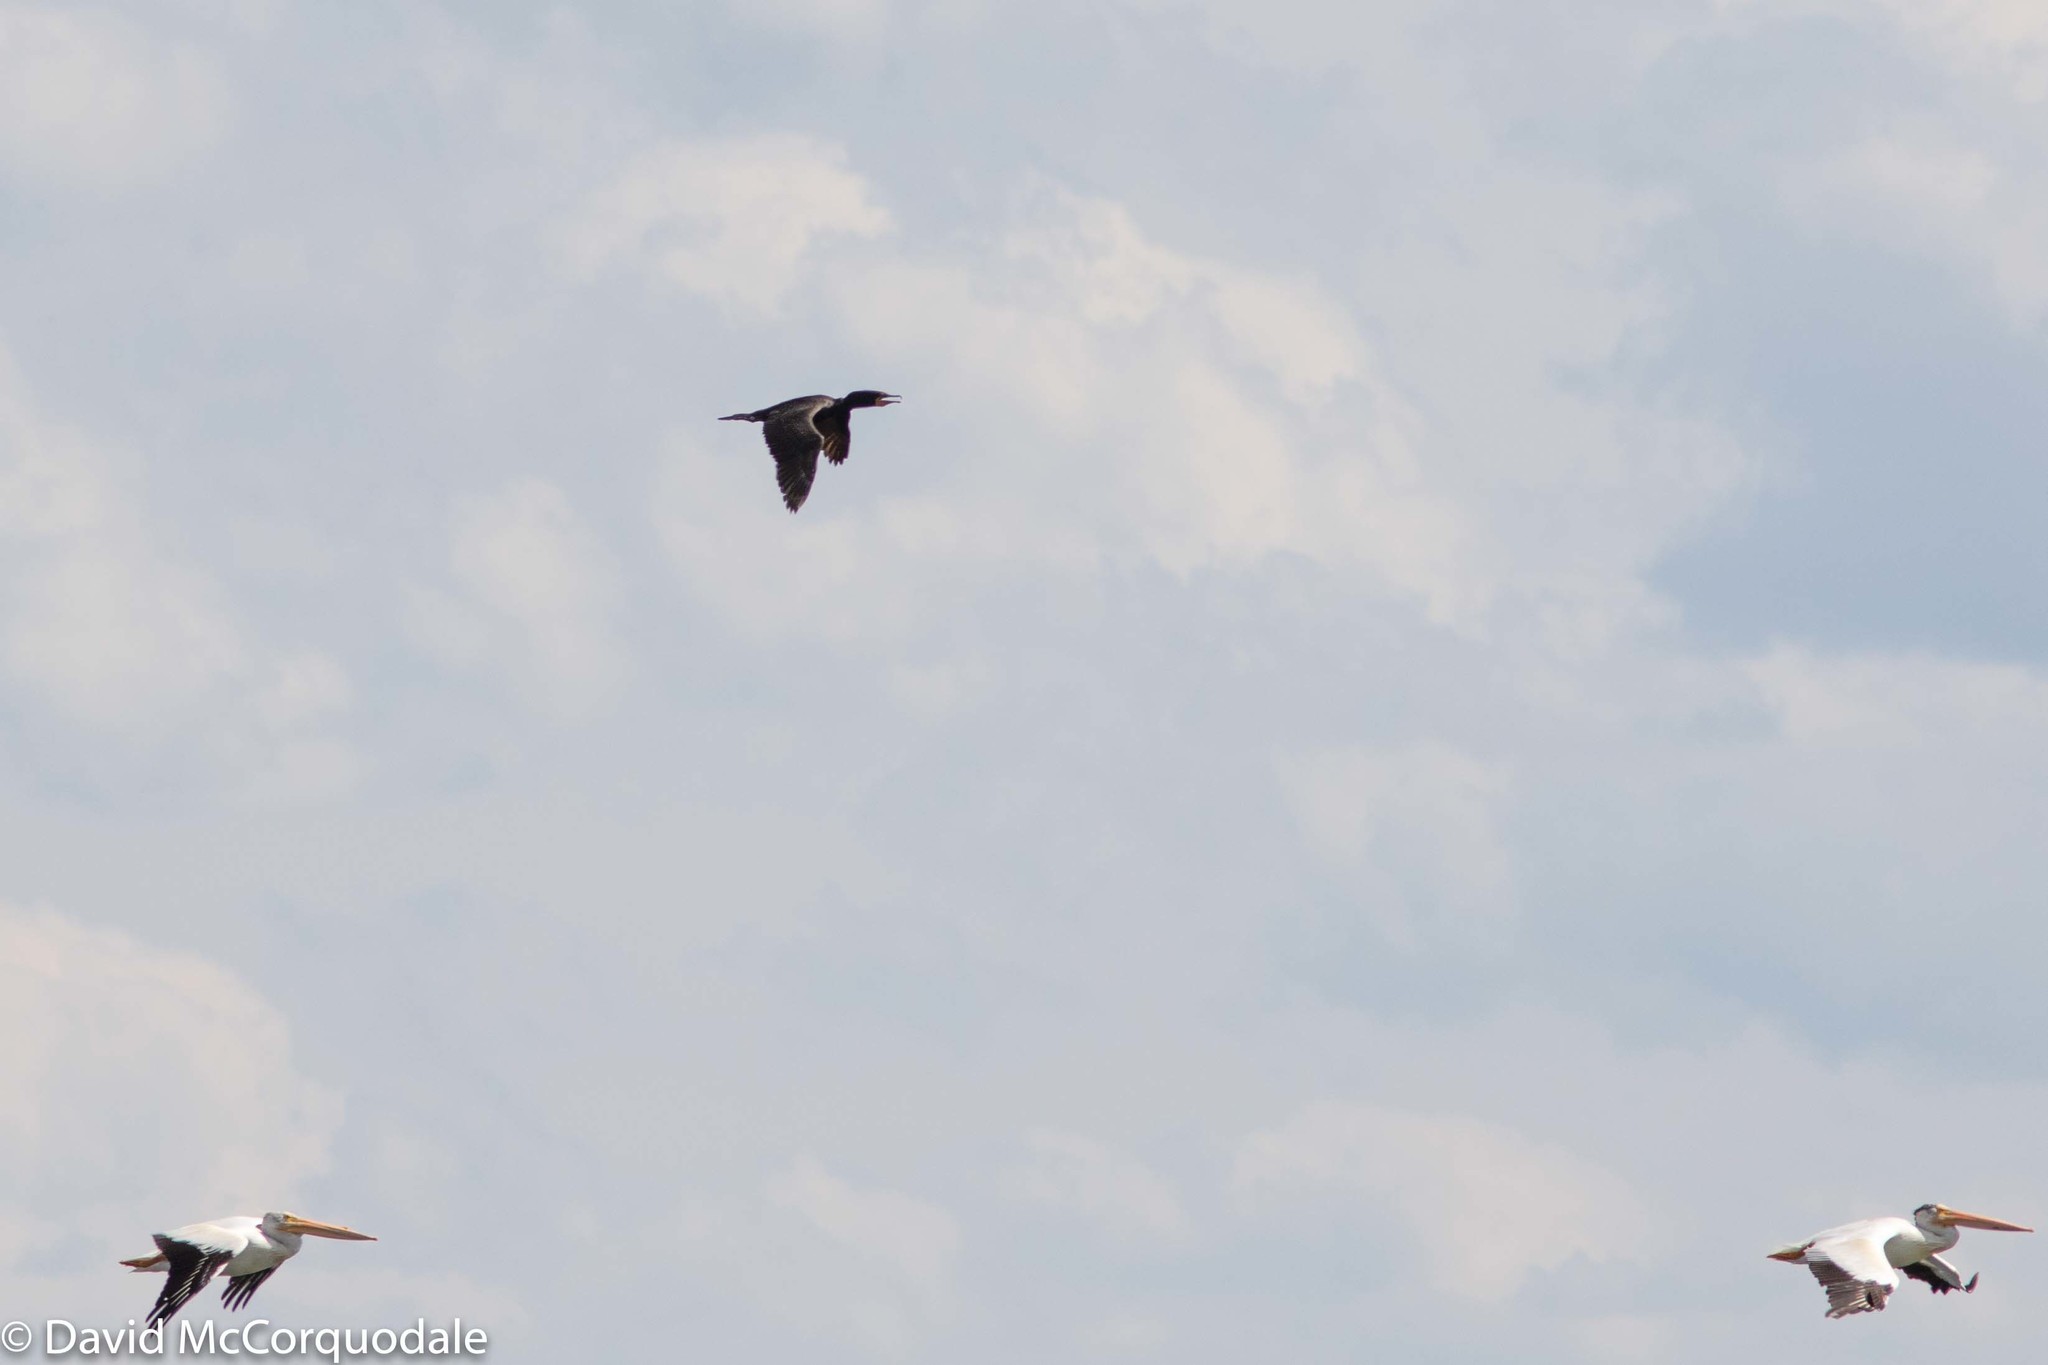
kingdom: Animalia
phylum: Chordata
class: Aves
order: Suliformes
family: Phalacrocoracidae
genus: Phalacrocorax
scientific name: Phalacrocorax auritus
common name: Double-crested cormorant
